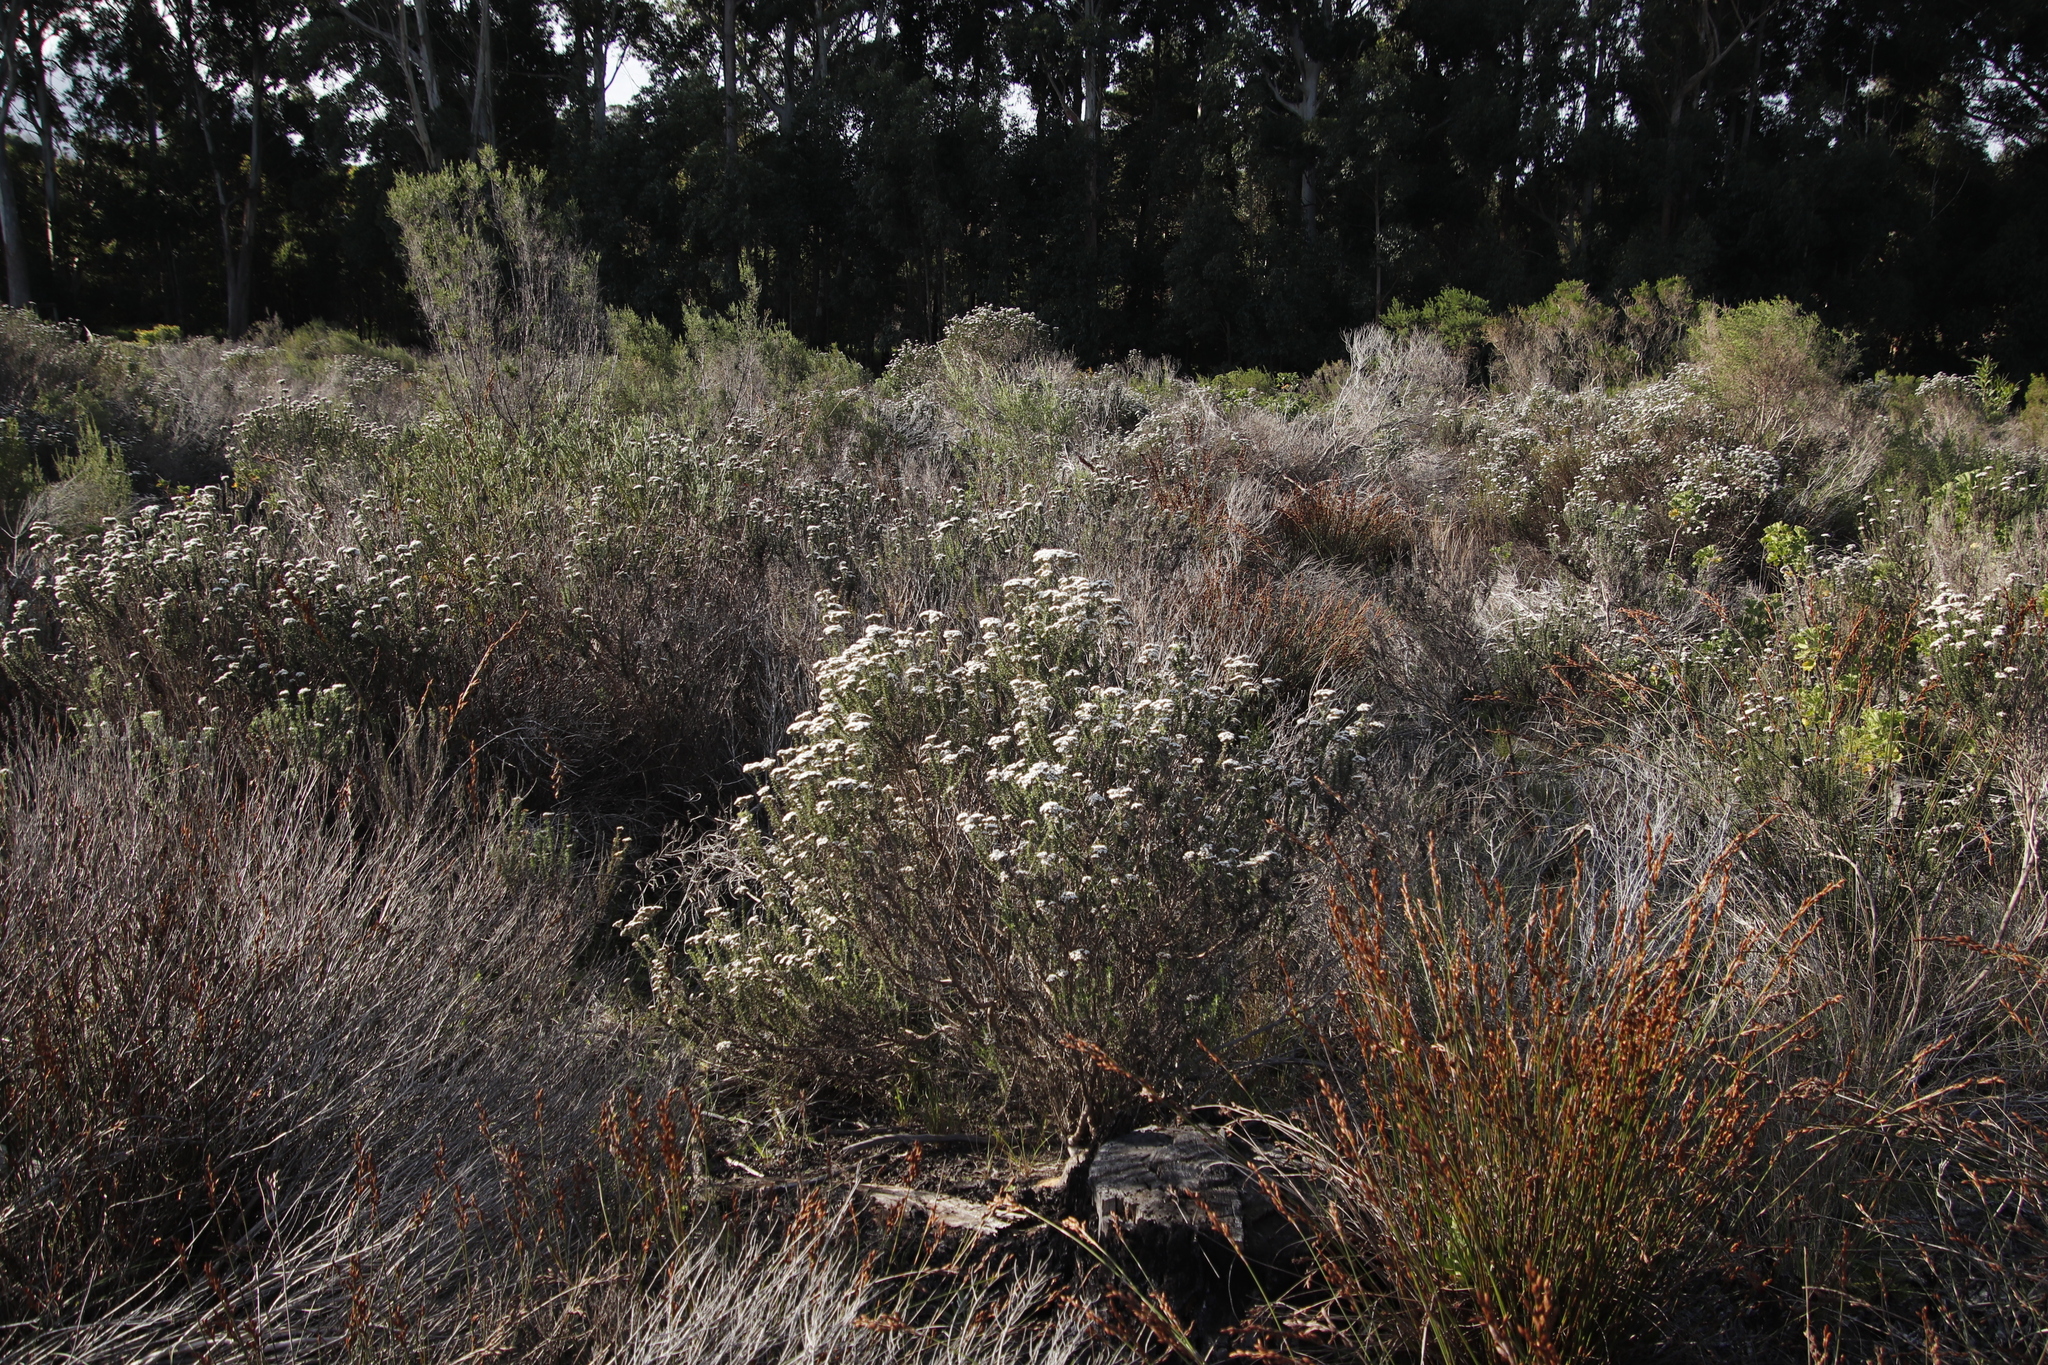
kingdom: Plantae
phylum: Tracheophyta
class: Liliopsida
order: Poales
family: Restionaceae
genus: Restio
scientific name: Restio bifurcus
